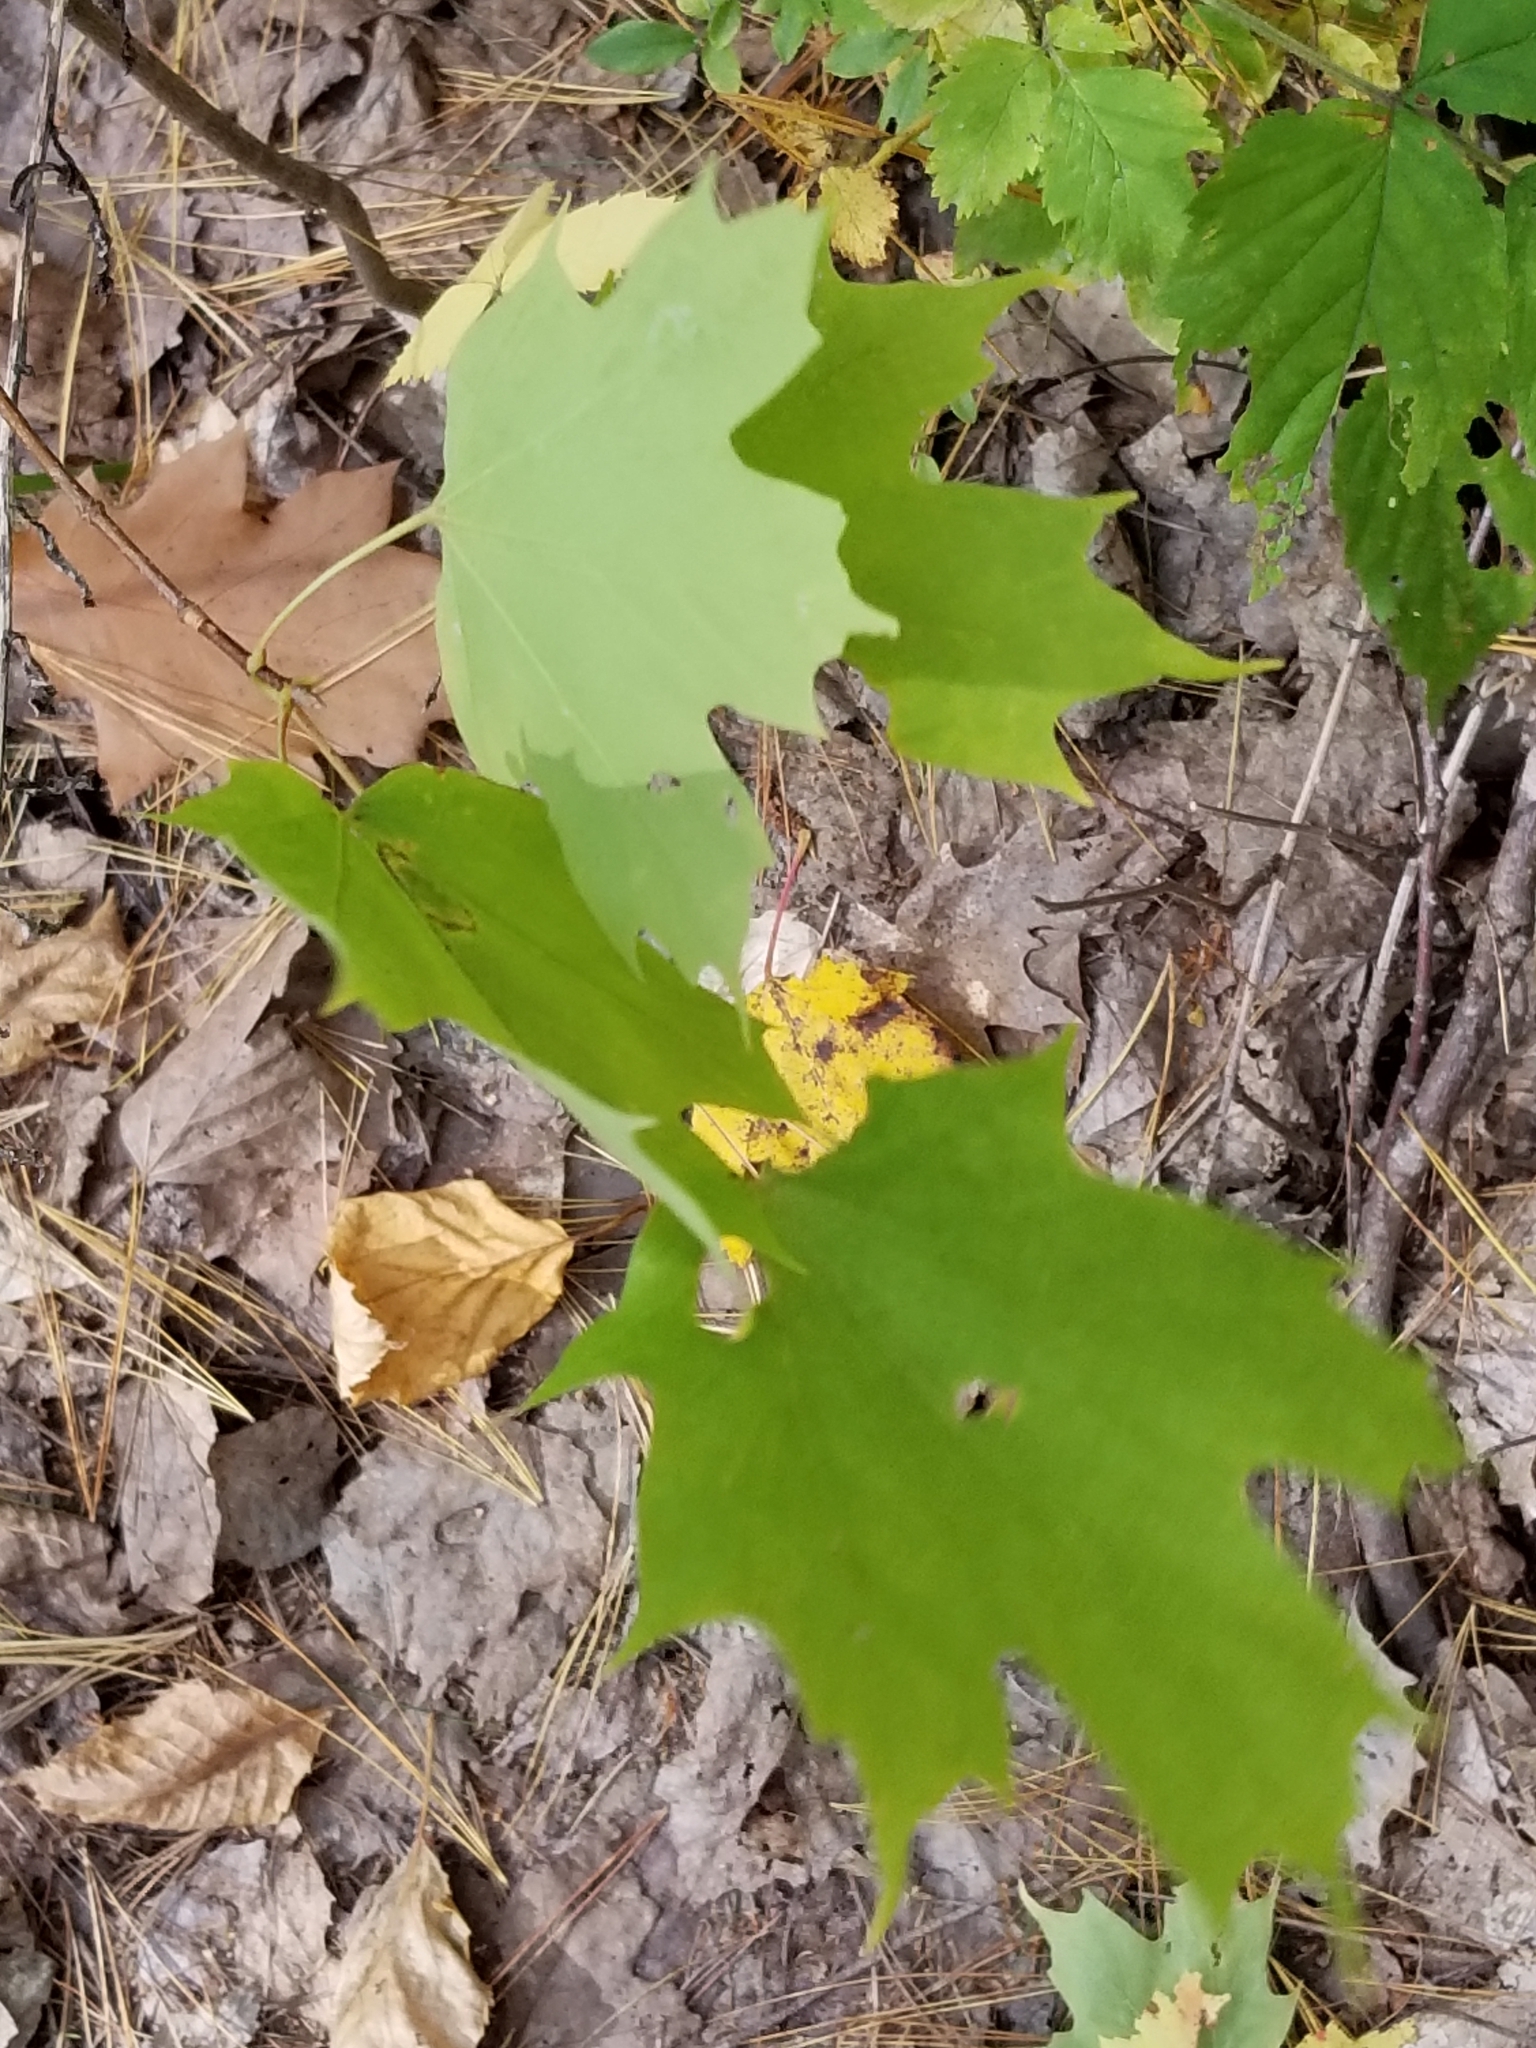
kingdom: Plantae
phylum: Tracheophyta
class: Magnoliopsida
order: Sapindales
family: Sapindaceae
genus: Acer
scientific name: Acer saccharum
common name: Sugar maple
